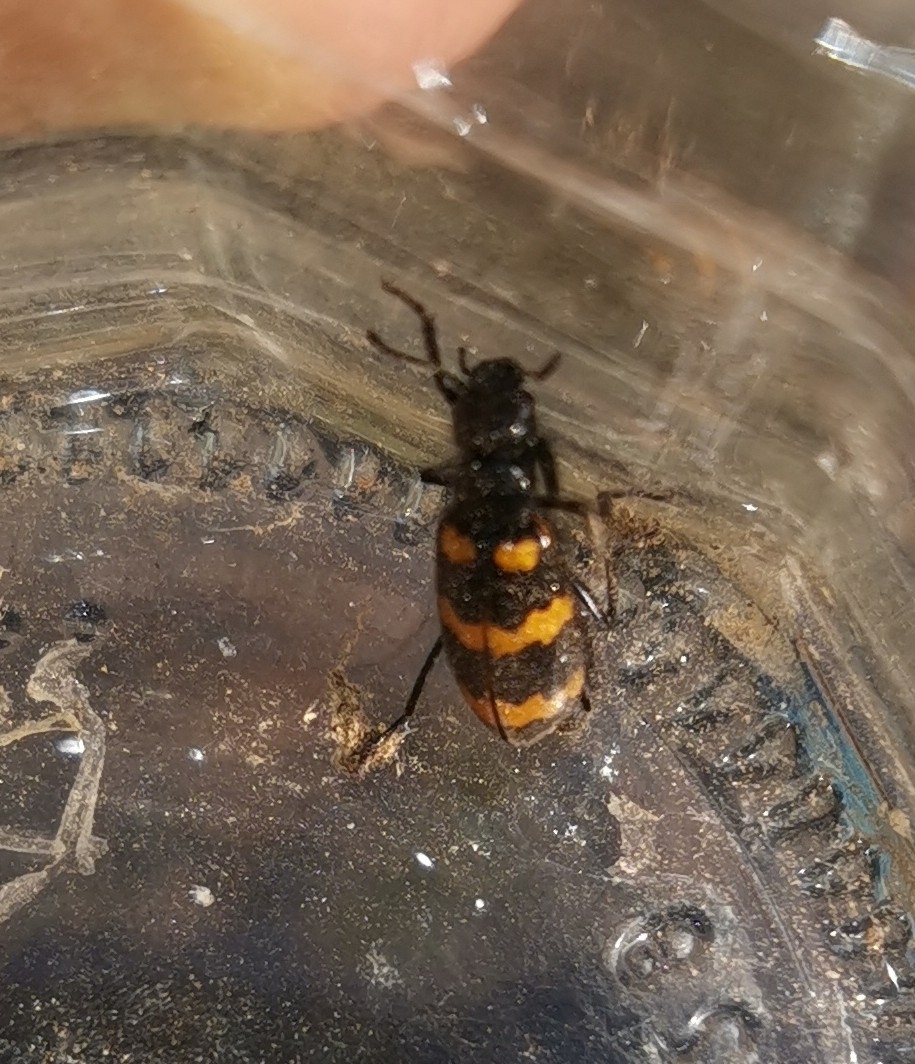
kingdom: Animalia
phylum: Arthropoda
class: Insecta
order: Coleoptera
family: Meloidae
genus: Mylabris
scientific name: Mylabris variabilis
